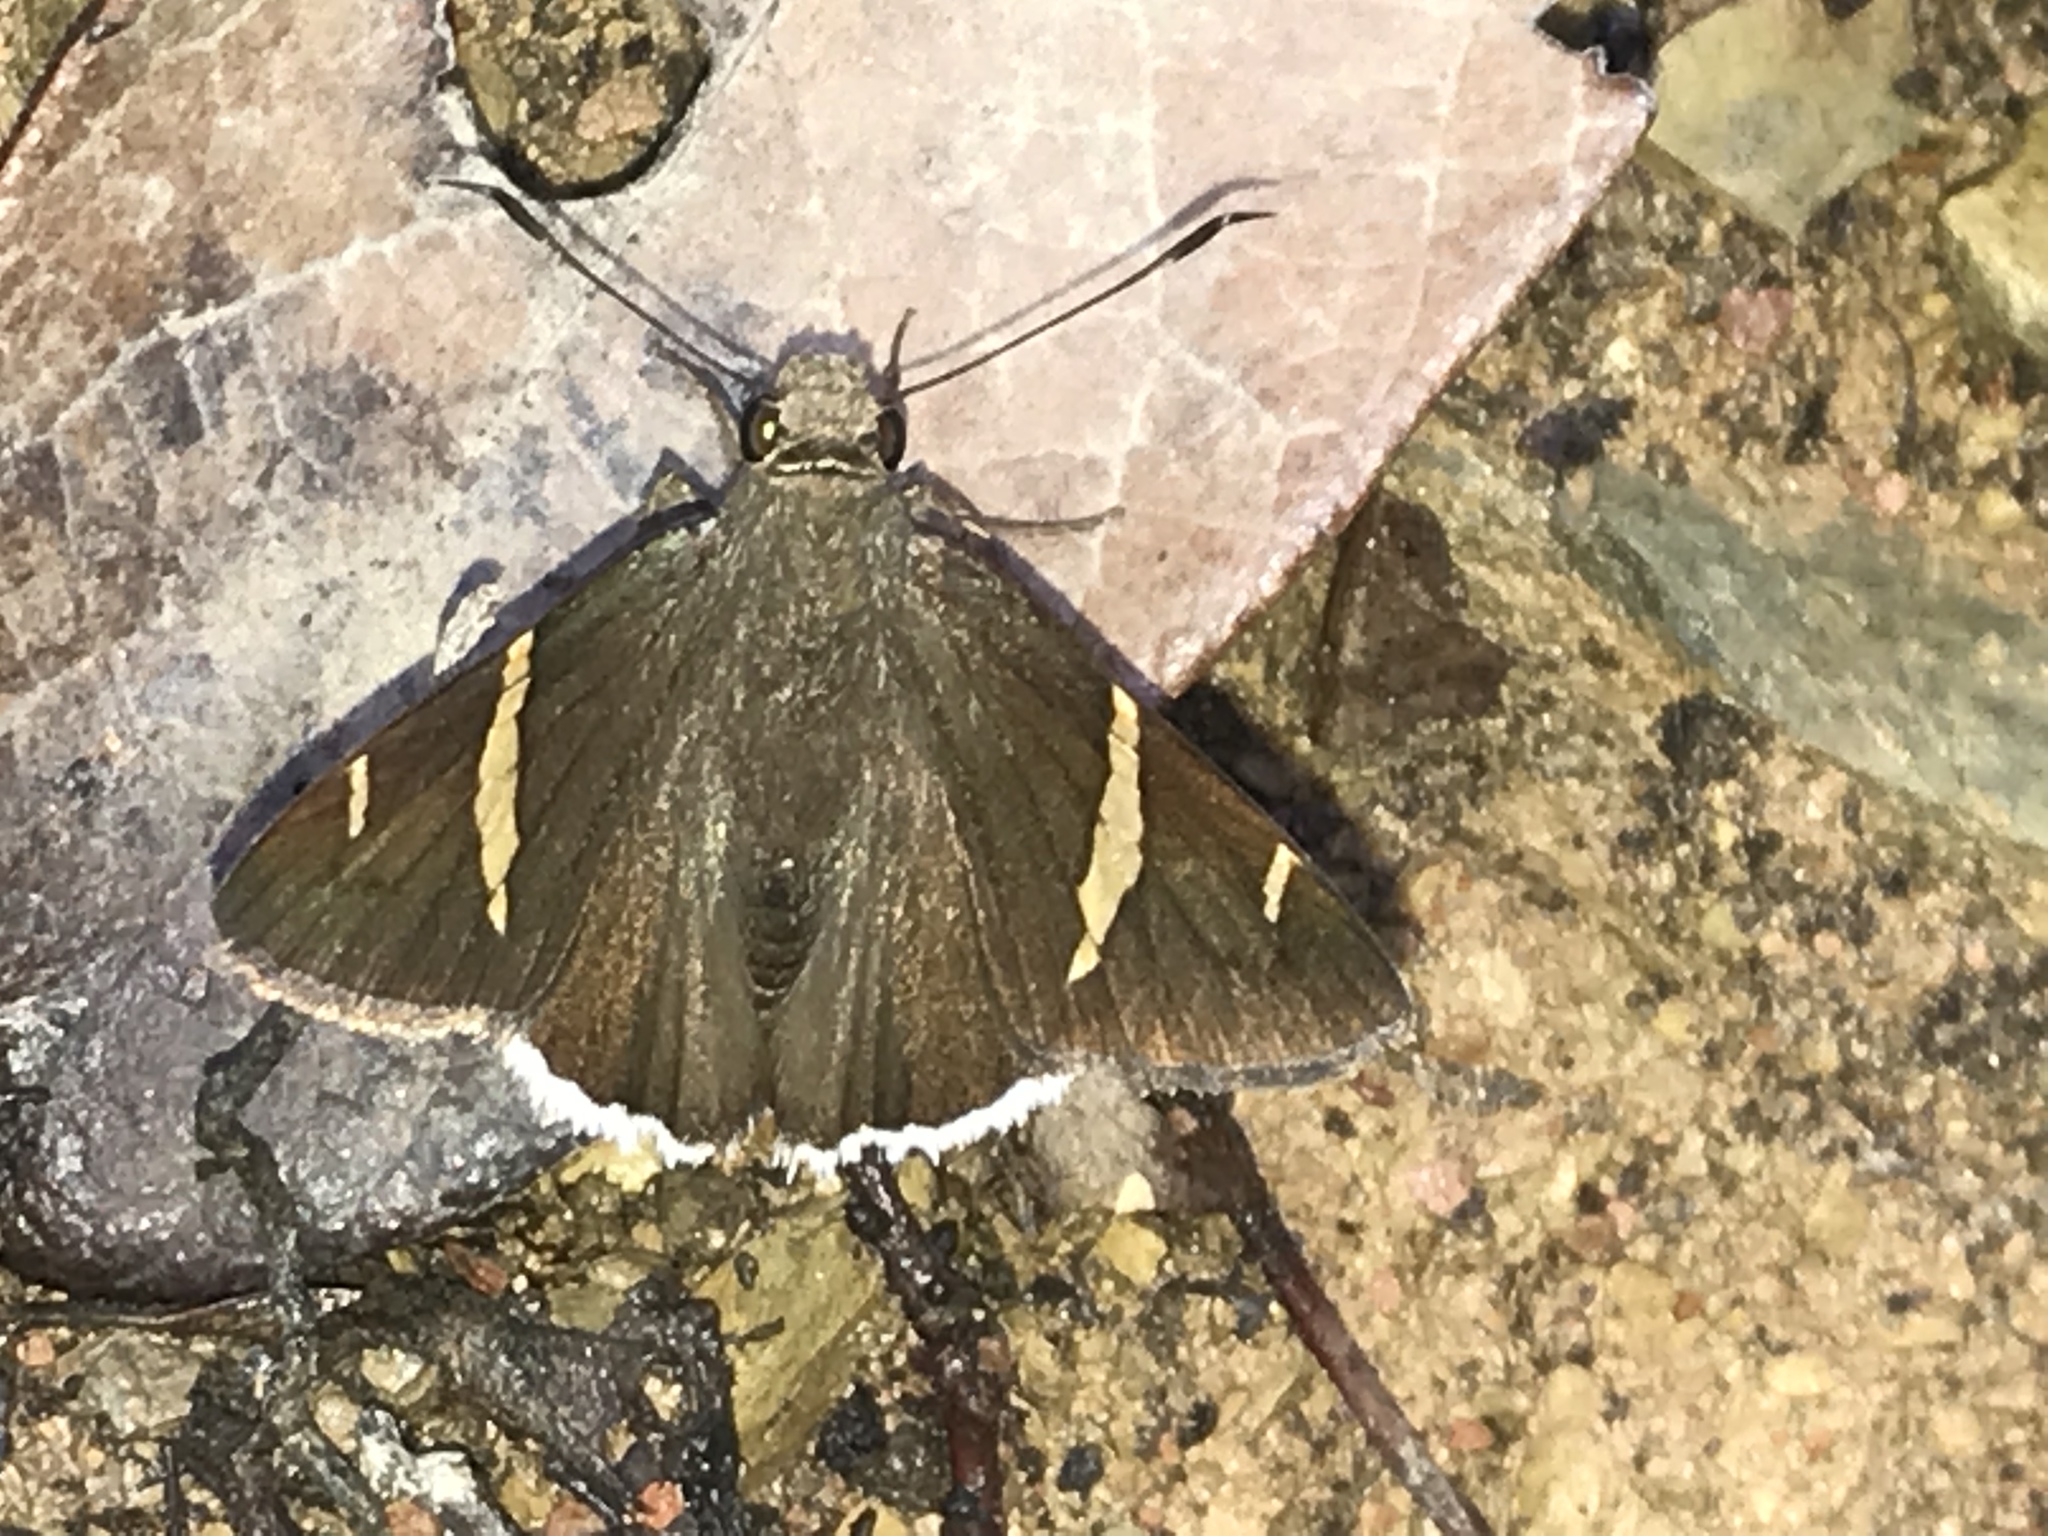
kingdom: Animalia
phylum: Arthropoda
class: Insecta
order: Lepidoptera
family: Hesperiidae
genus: Thorybes
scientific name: Thorybes cincta
